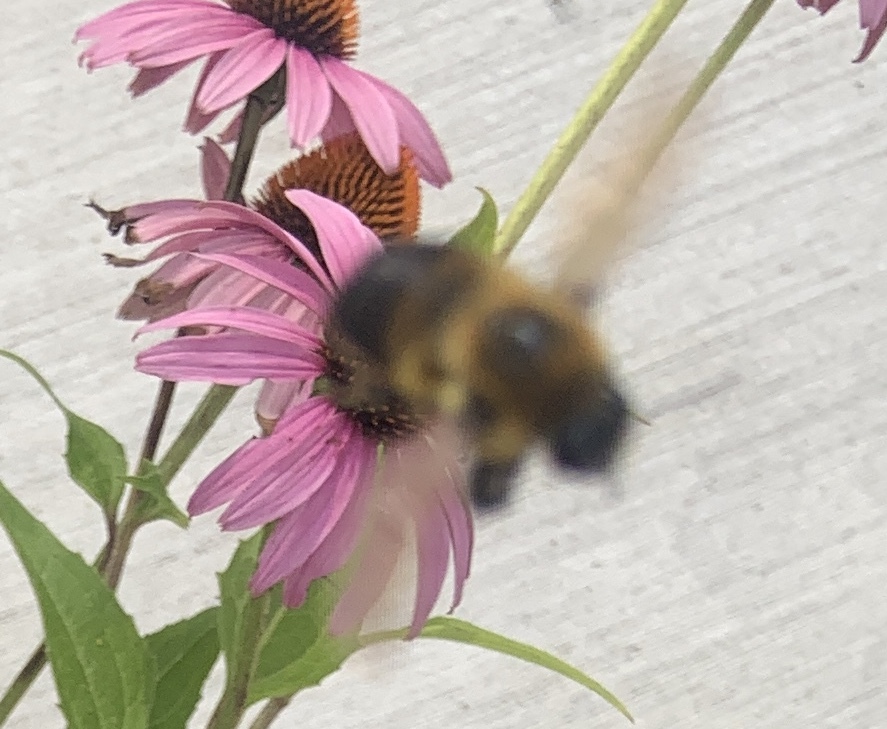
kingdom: Animalia
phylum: Arthropoda
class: Insecta
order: Hymenoptera
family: Apidae
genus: Bombus
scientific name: Bombus griseocollis
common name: Brown-belted bumble bee
